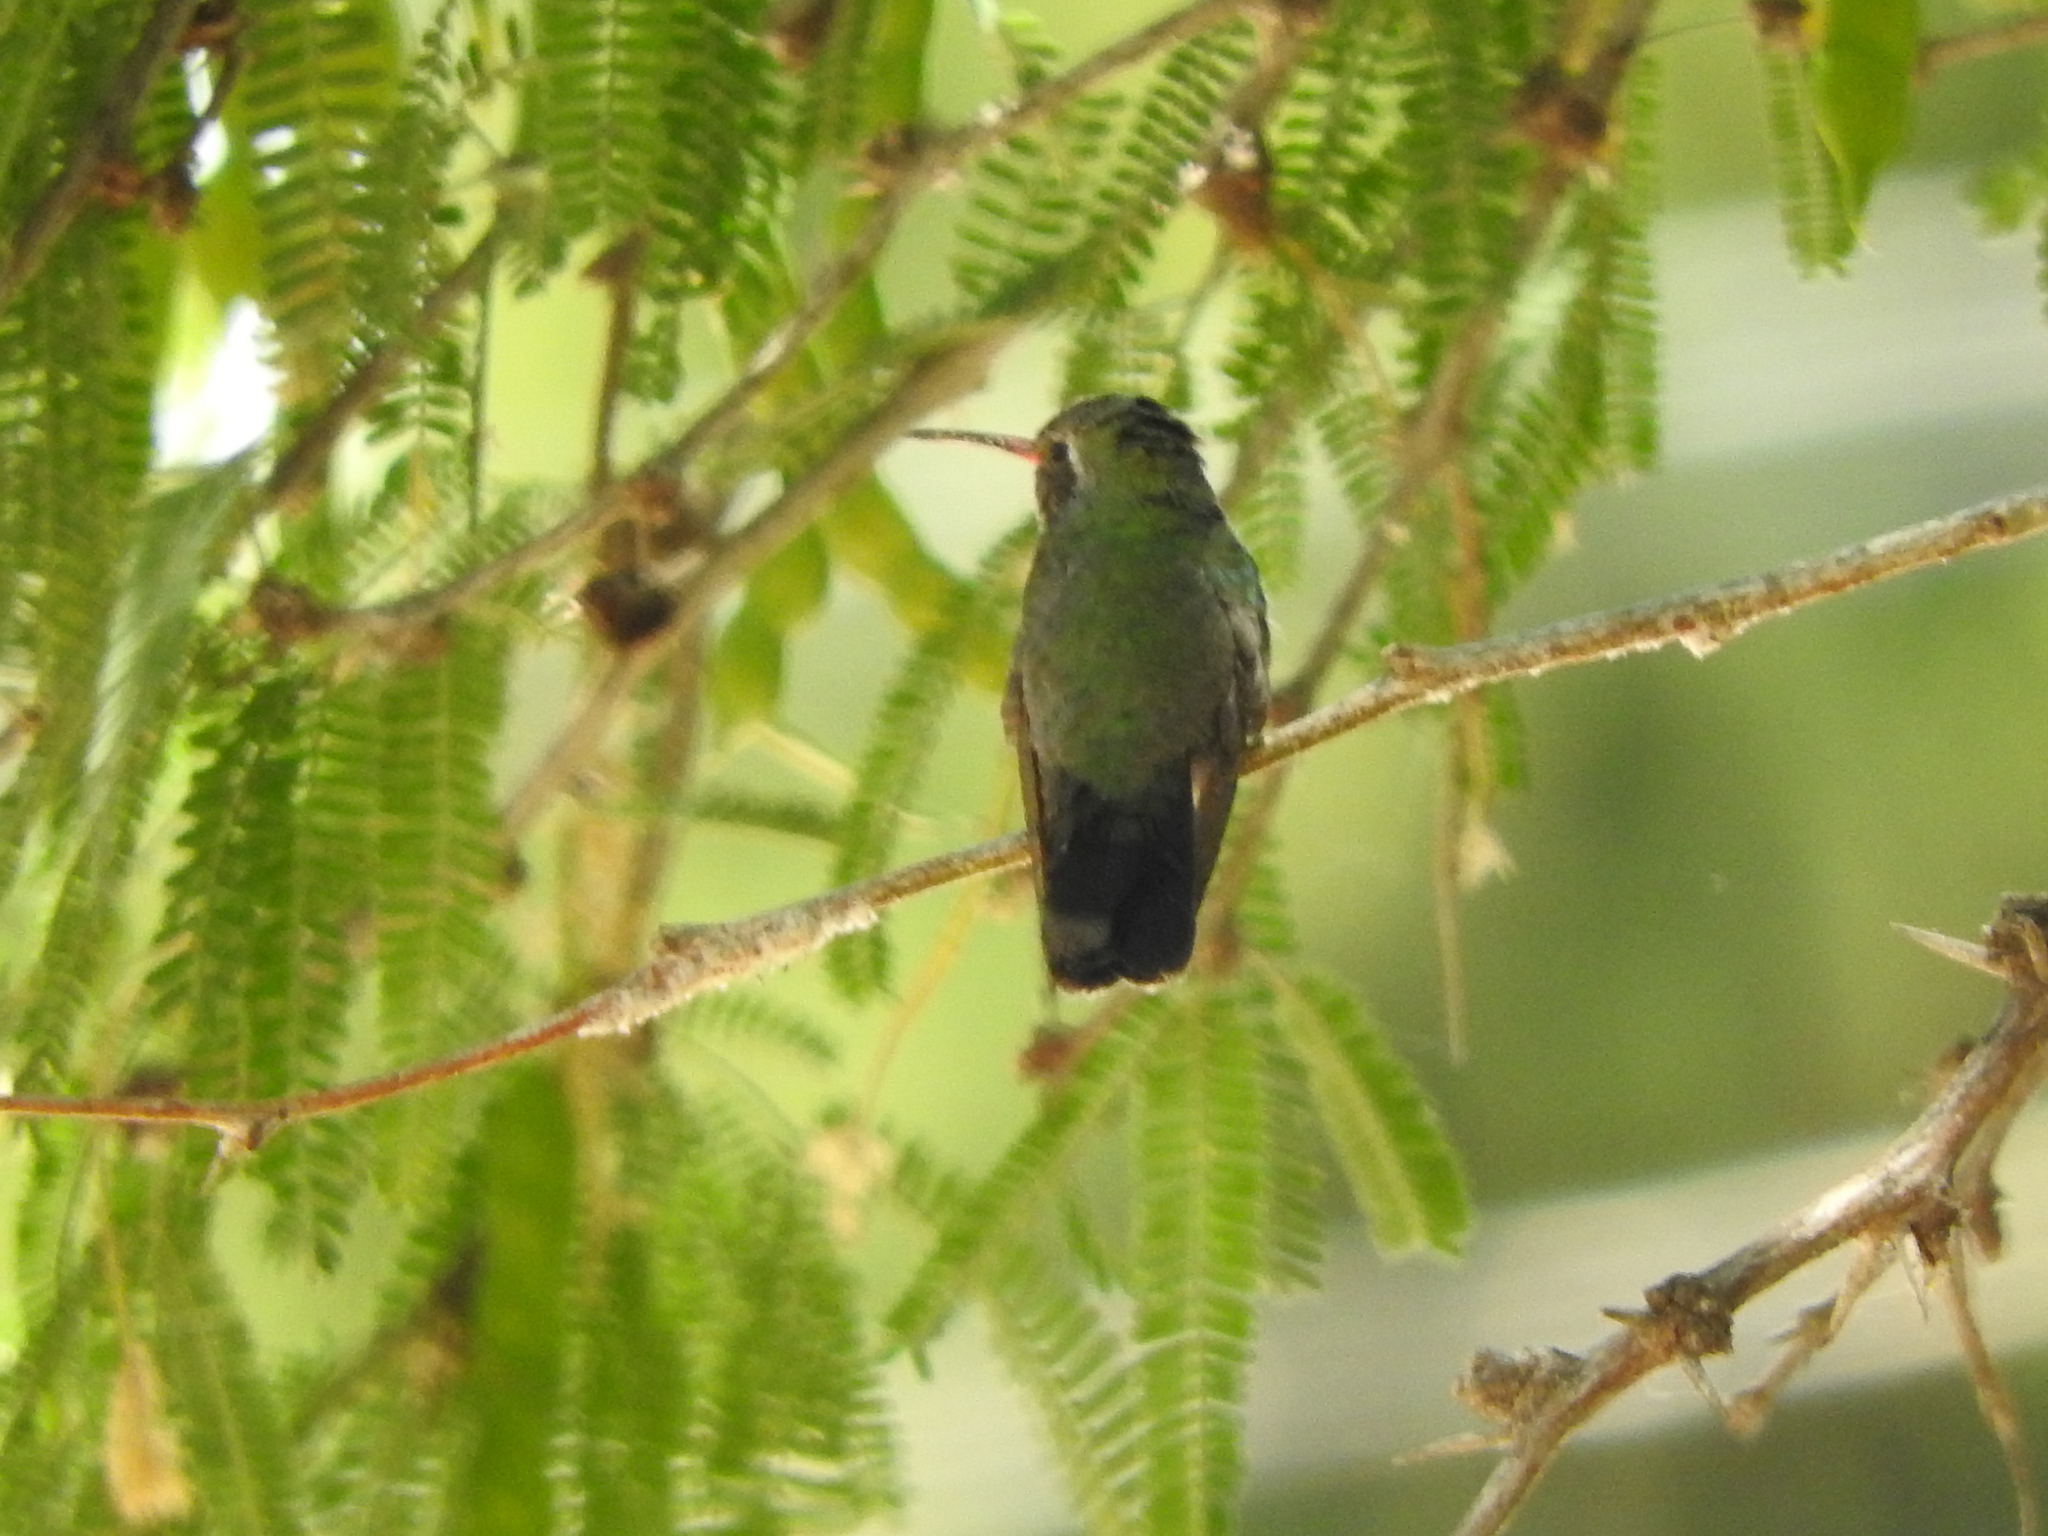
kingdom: Animalia
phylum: Chordata
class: Aves
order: Apodiformes
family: Trochilidae
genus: Cynanthus
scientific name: Cynanthus latirostris
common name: Broad-billed hummingbird
